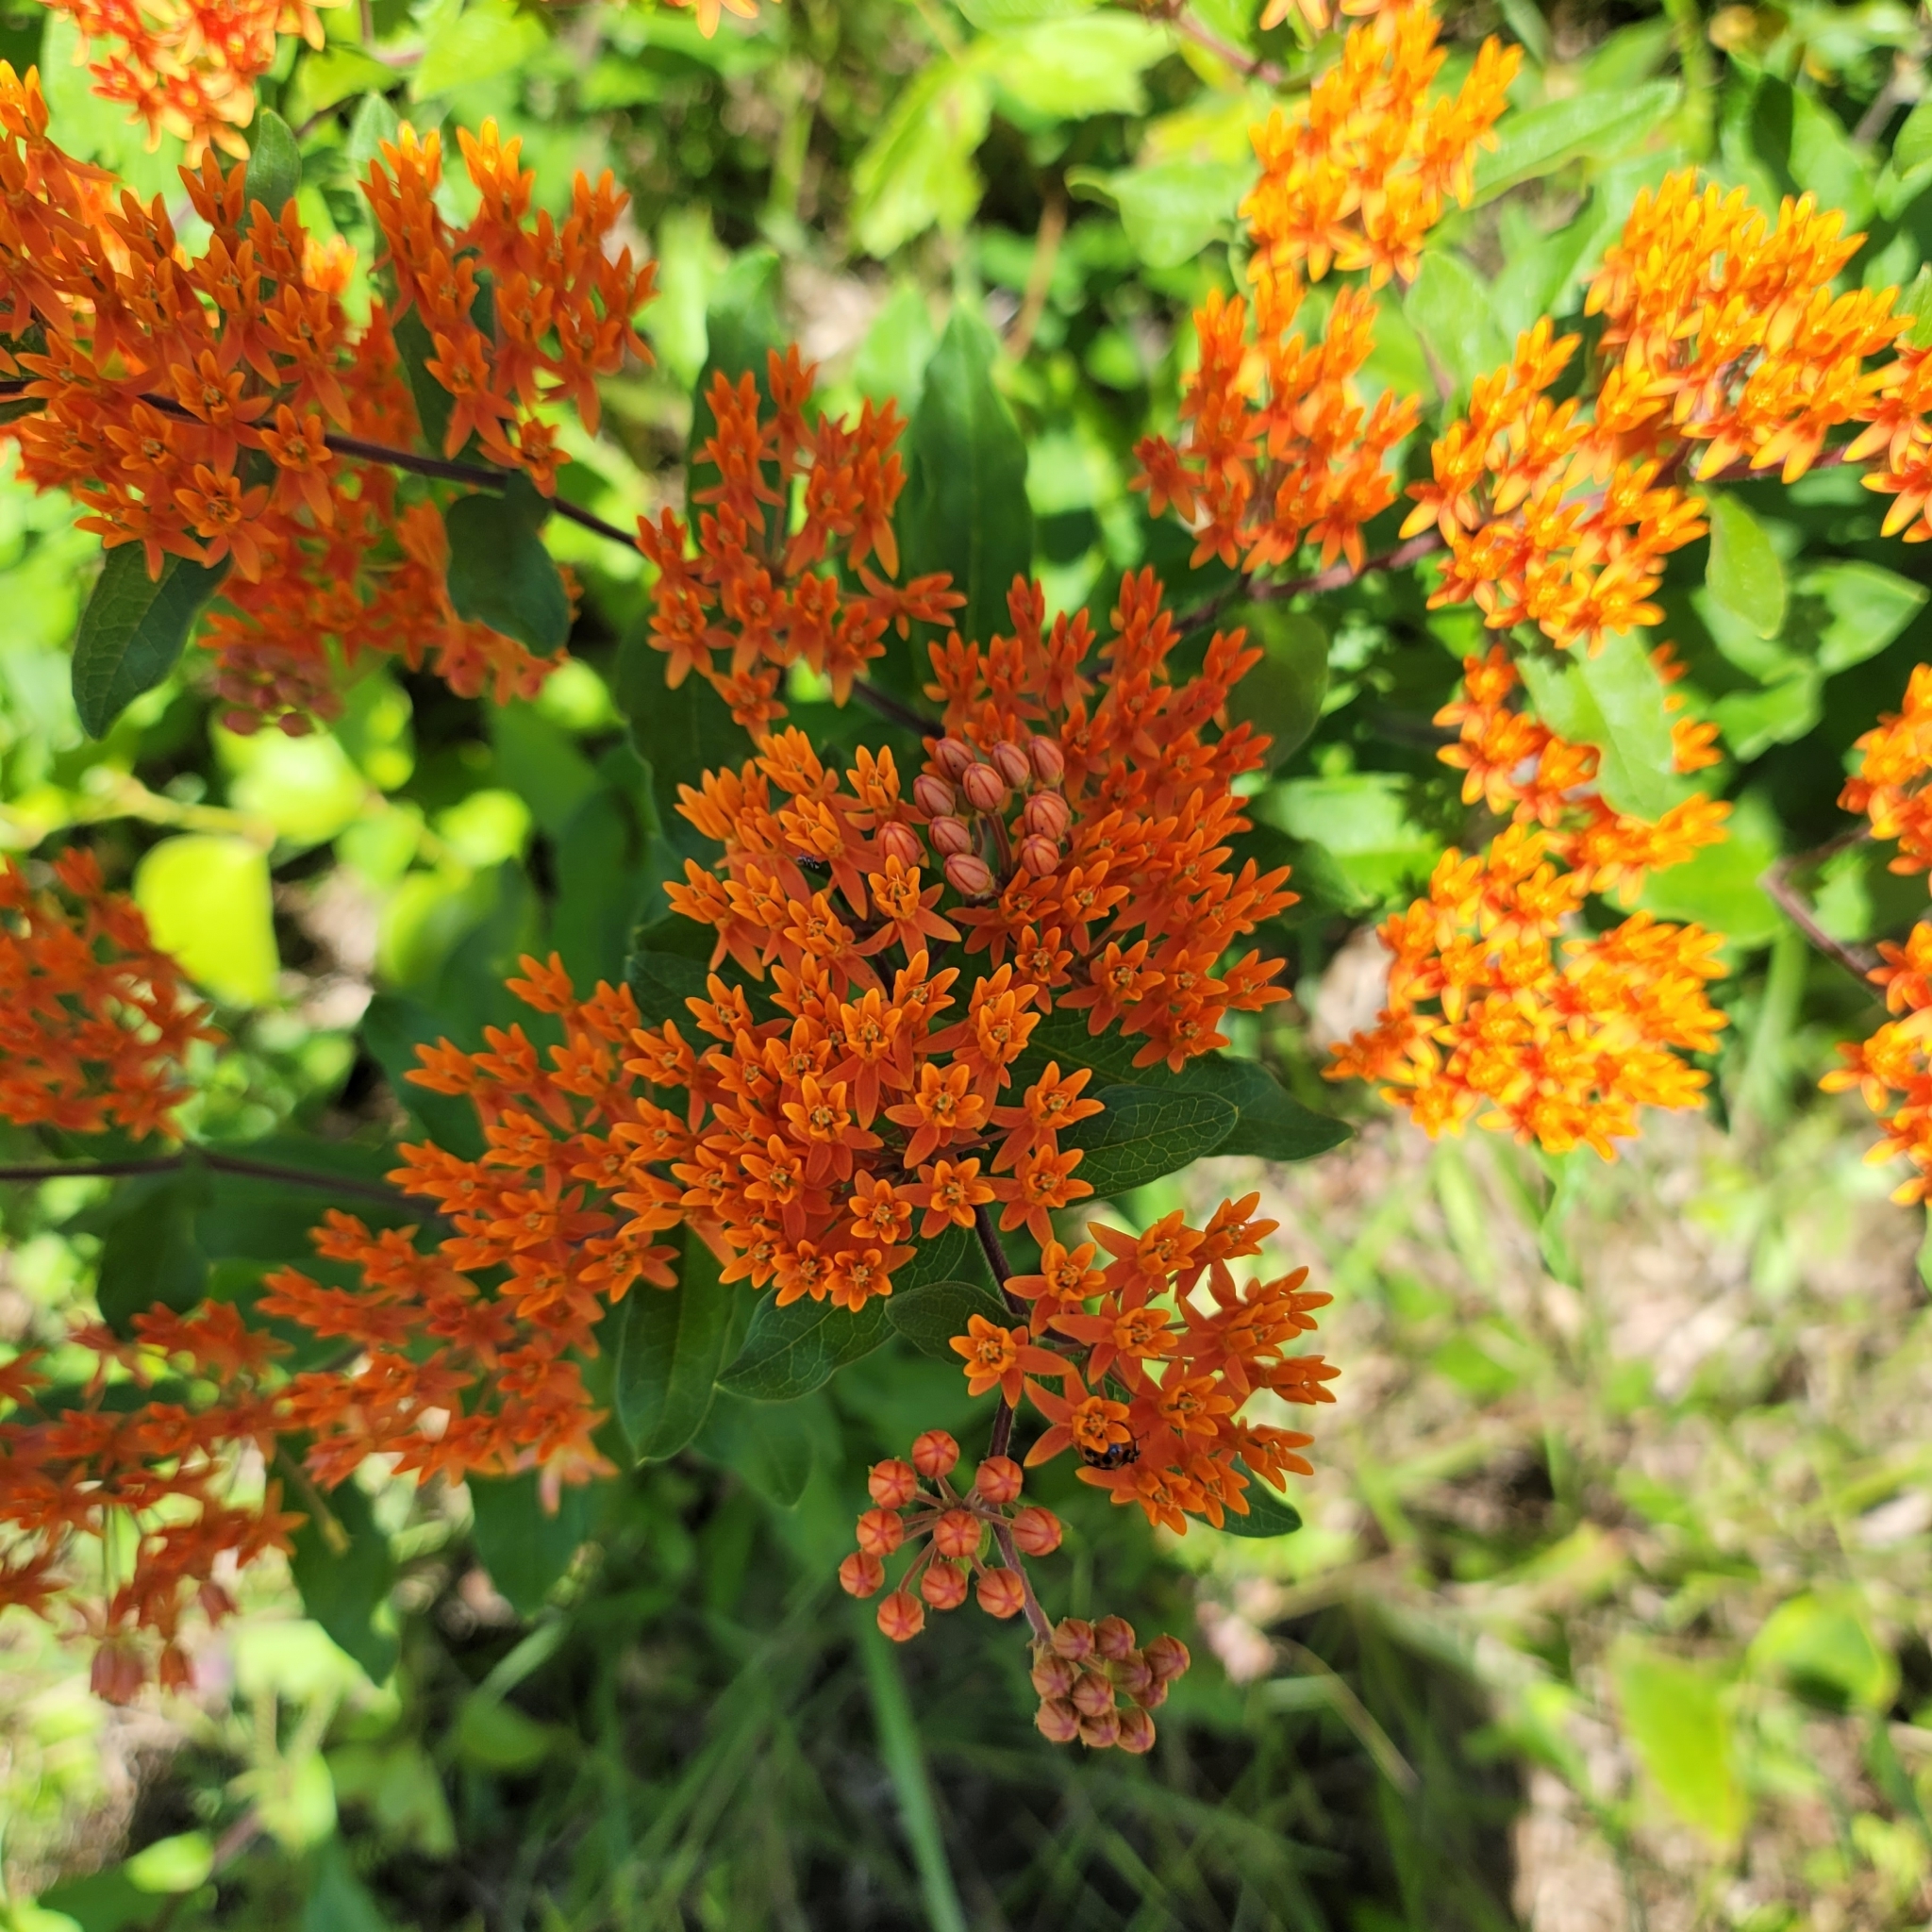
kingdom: Plantae
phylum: Tracheophyta
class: Magnoliopsida
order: Gentianales
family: Apocynaceae
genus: Asclepias
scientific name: Asclepias tuberosa
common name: Butterfly milkweed
